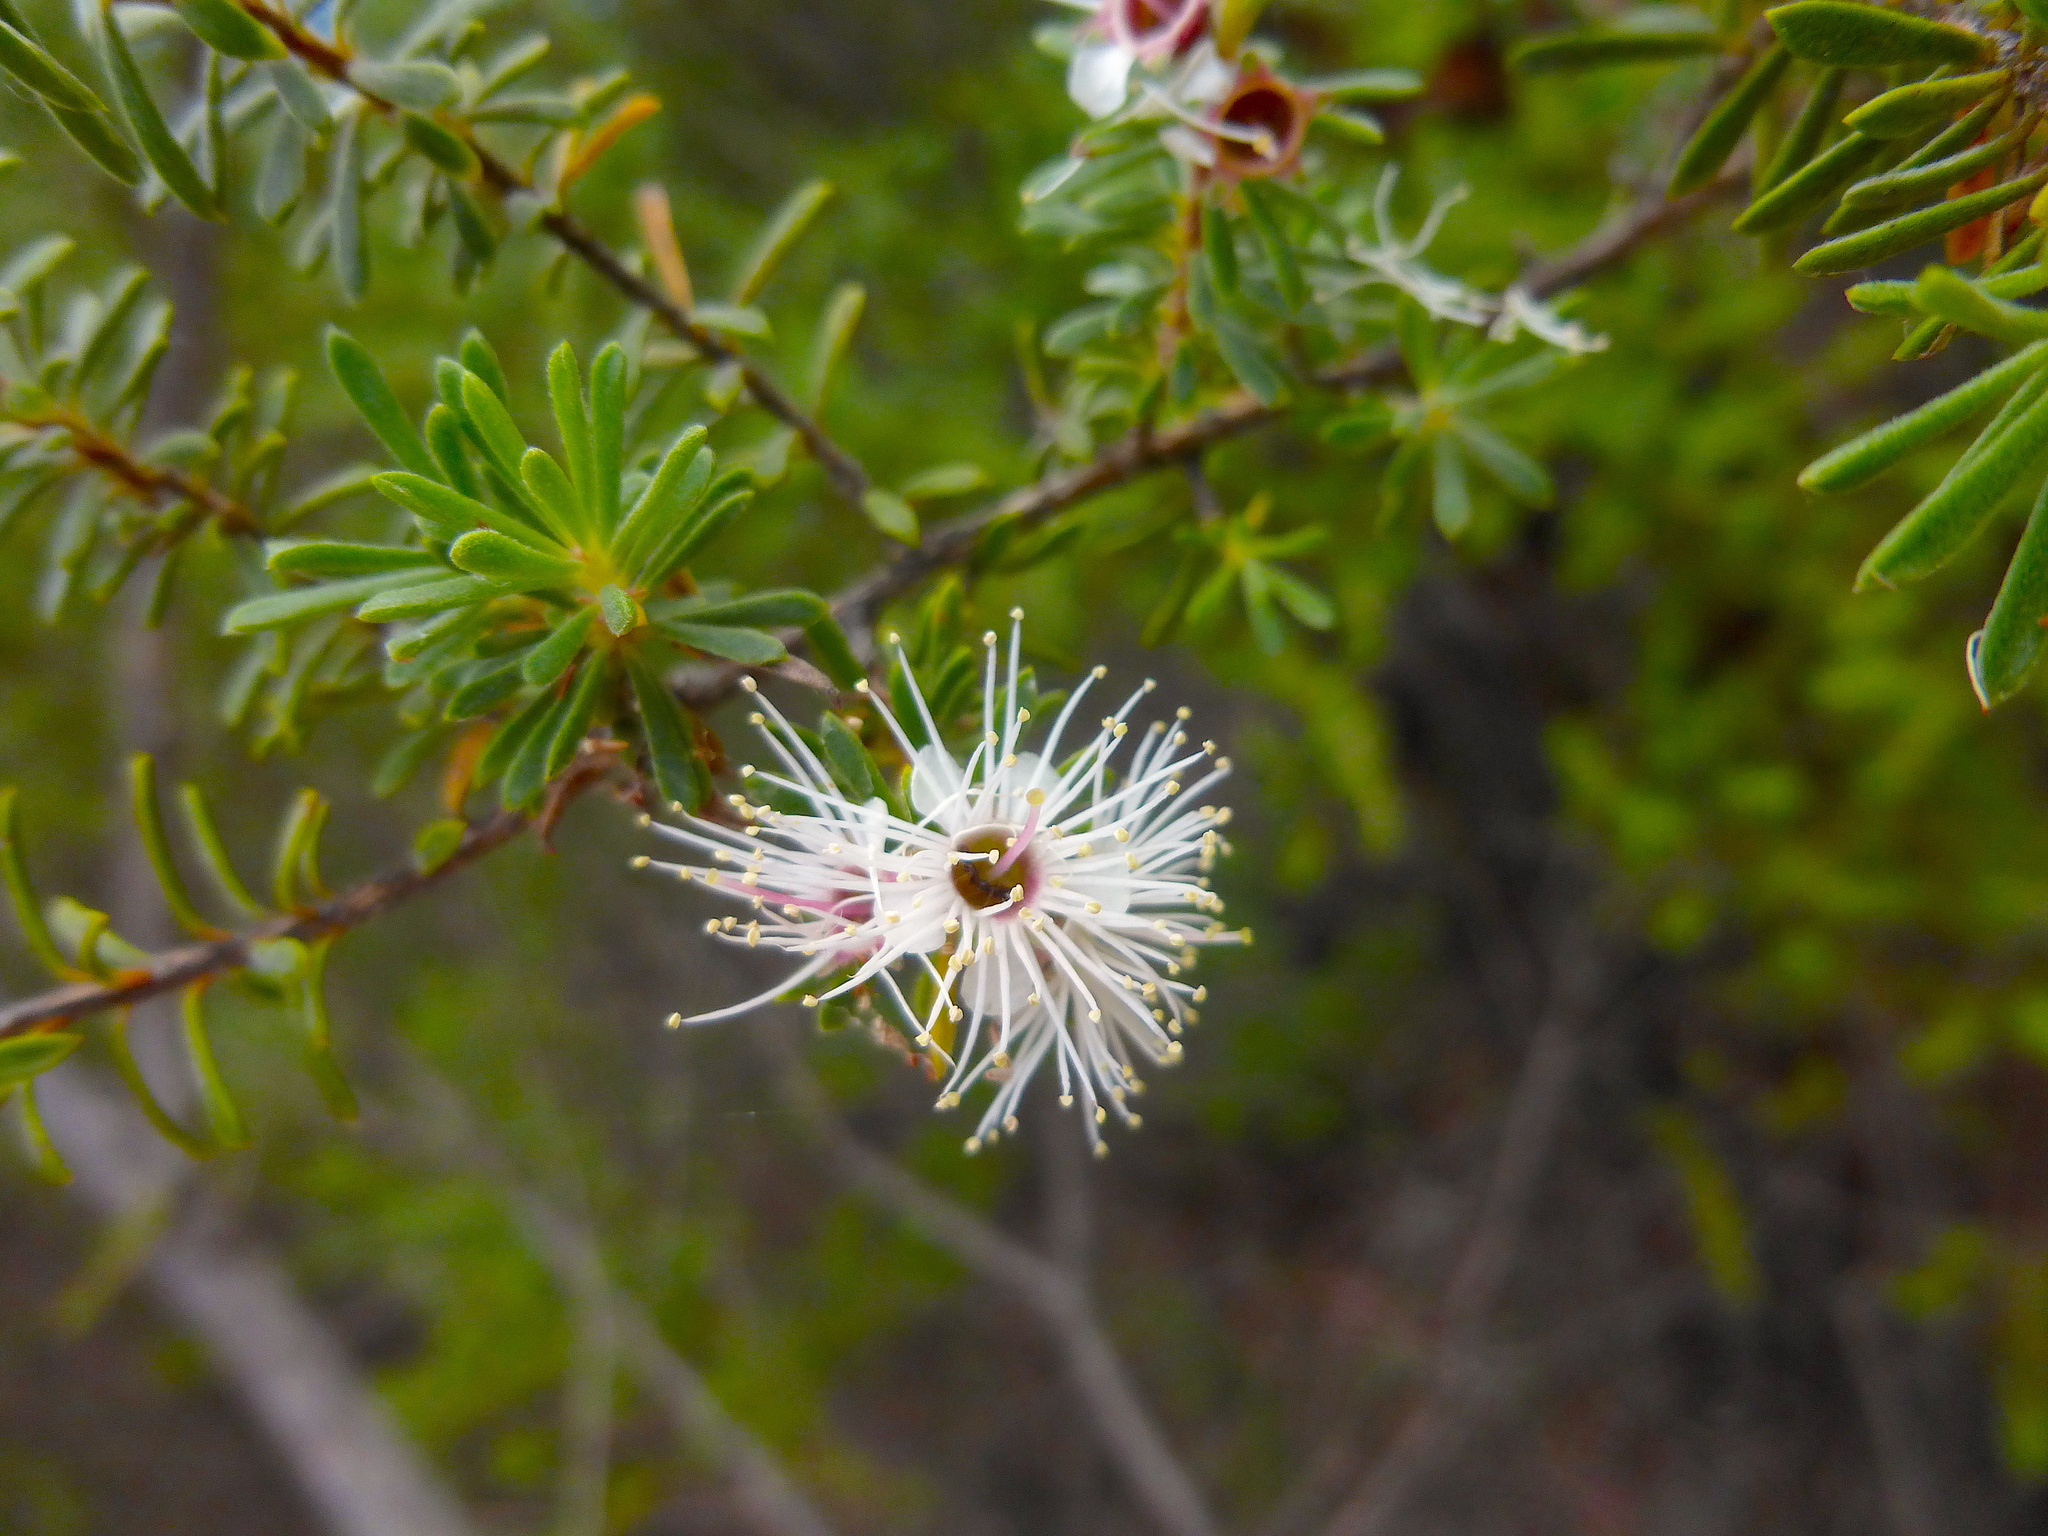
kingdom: Plantae
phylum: Tracheophyta
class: Magnoliopsida
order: Myrtales
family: Myrtaceae
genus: Kunzea
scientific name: Kunzea ambigua
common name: Tickbush
